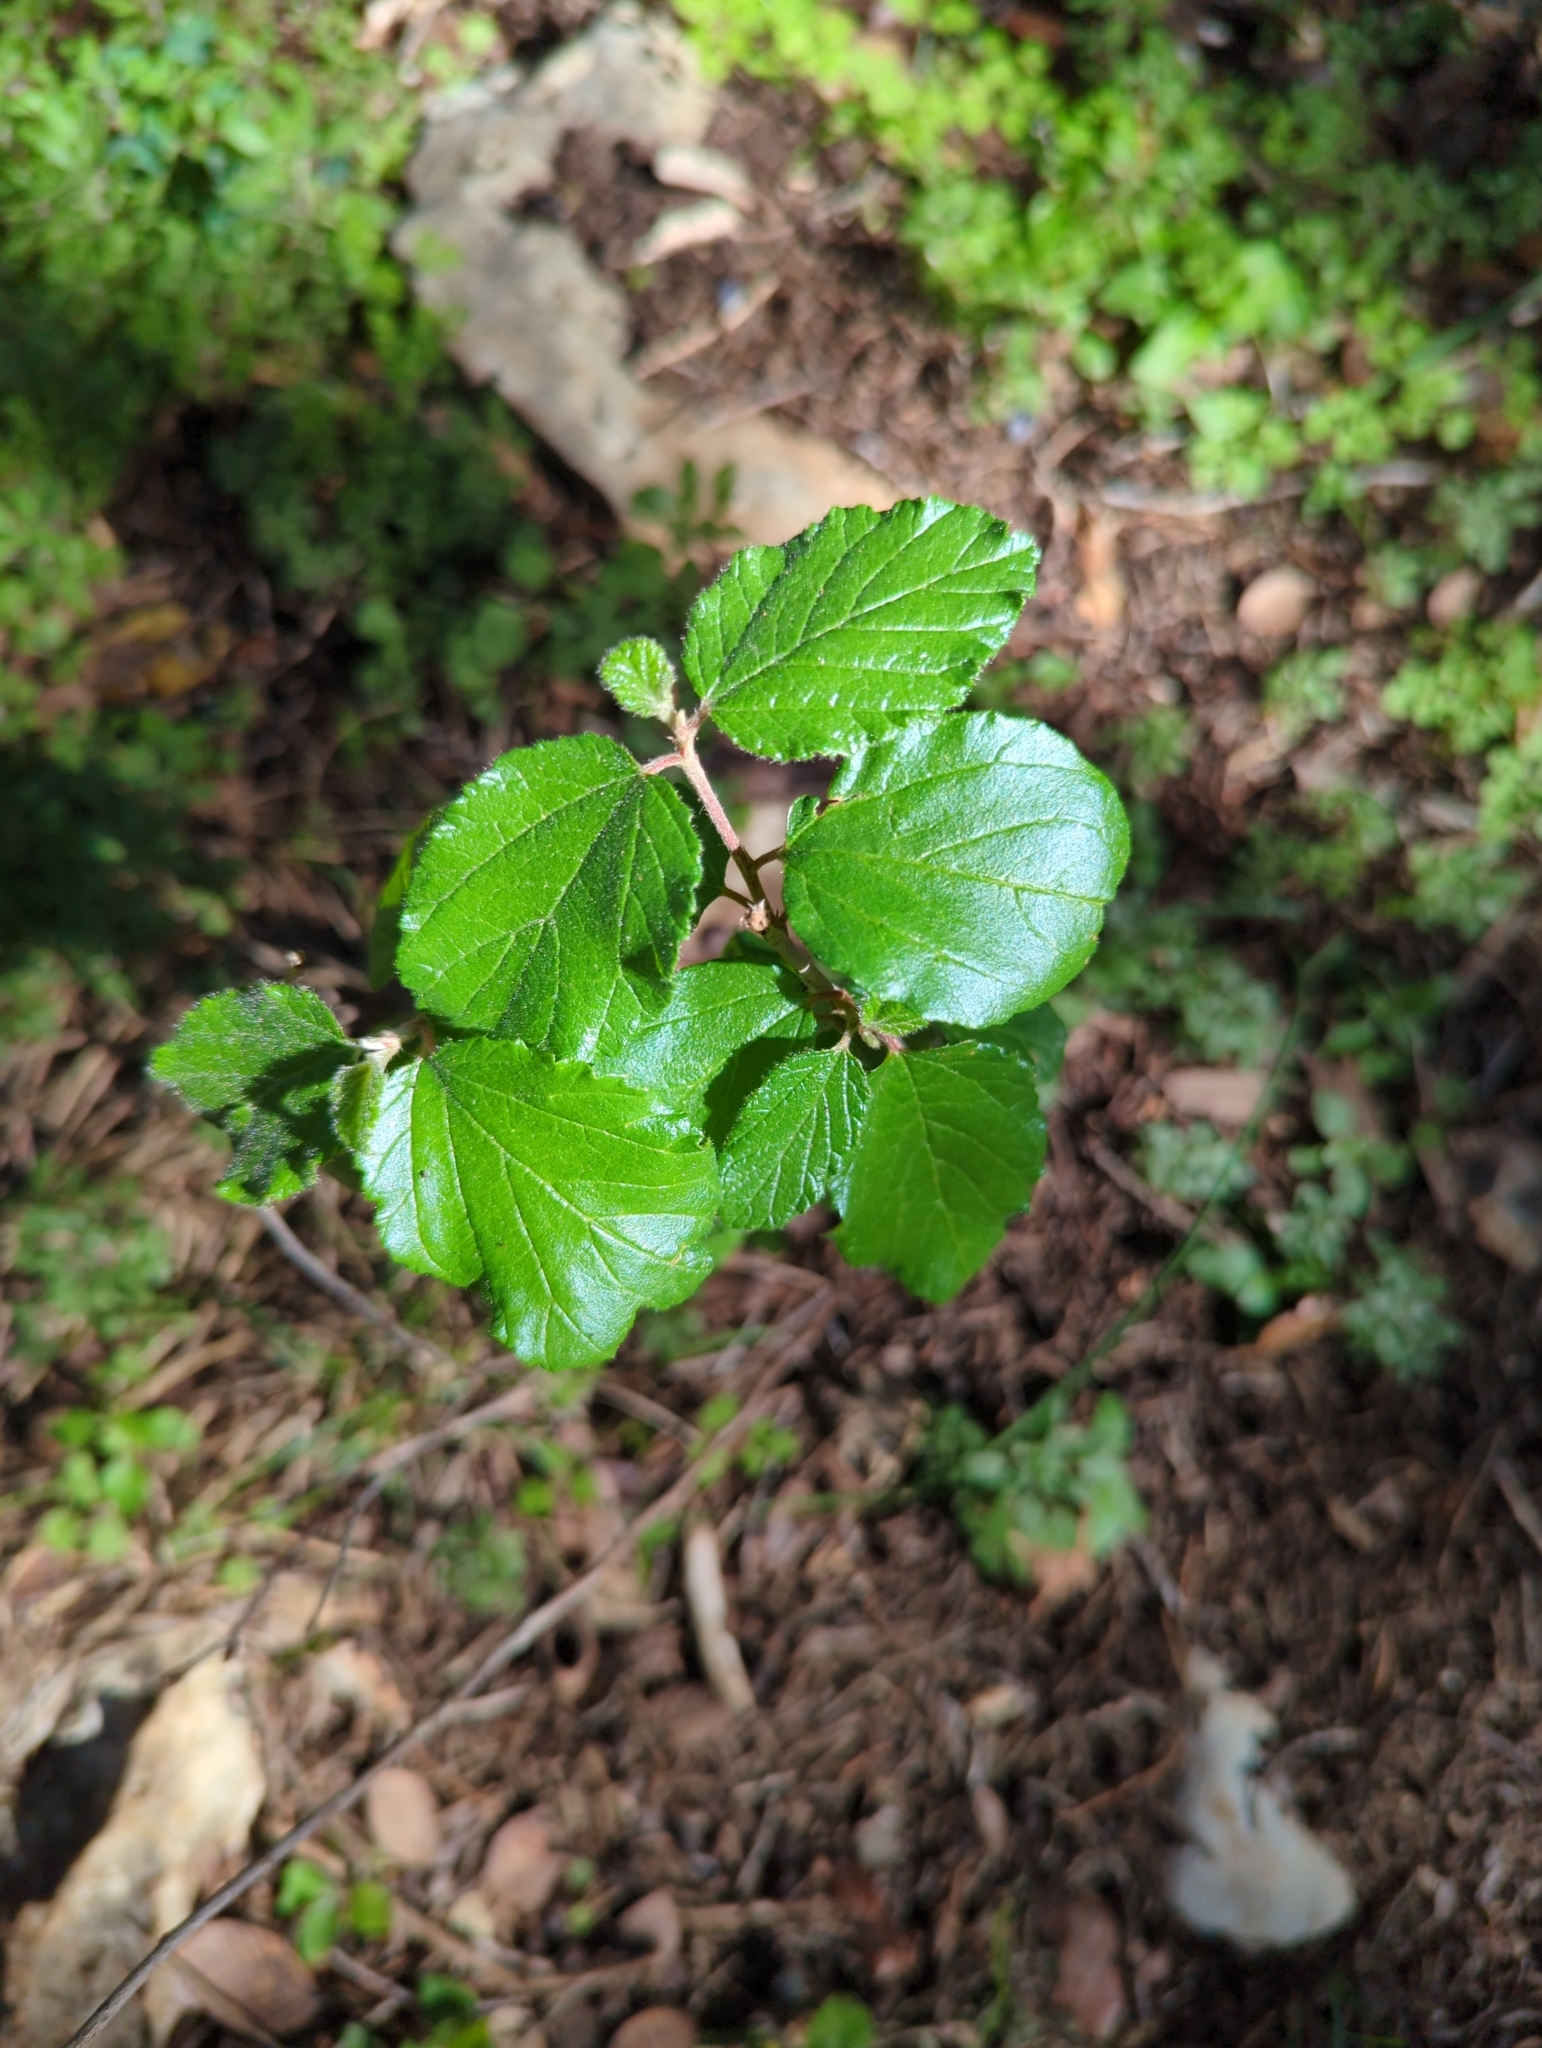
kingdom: Plantae
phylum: Tracheophyta
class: Magnoliopsida
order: Rosales
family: Rhamnaceae
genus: Colubrina
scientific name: Colubrina texensis
